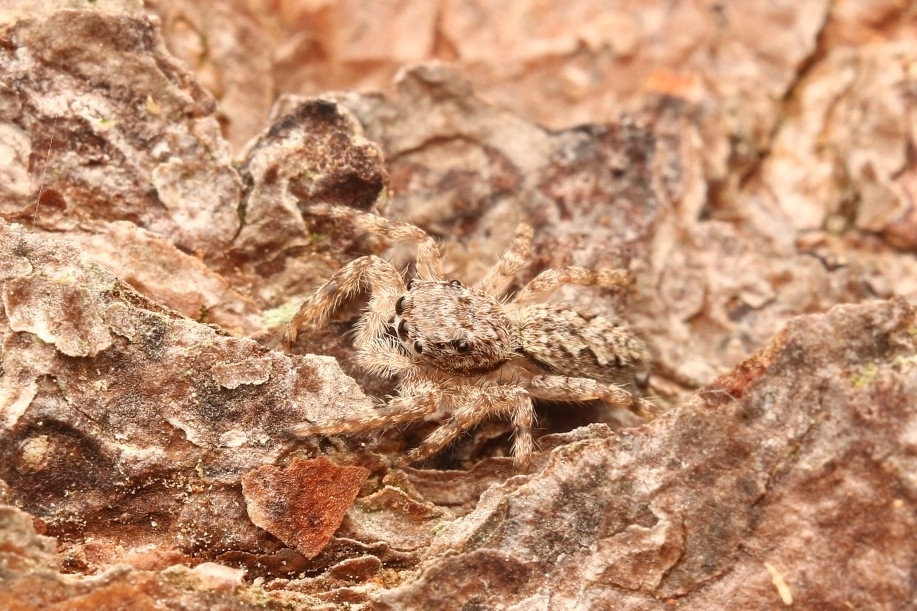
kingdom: Animalia
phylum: Arthropoda
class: Arachnida
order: Araneae
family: Salticidae
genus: Platycryptus
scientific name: Platycryptus undatus
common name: Tan jumping spider
